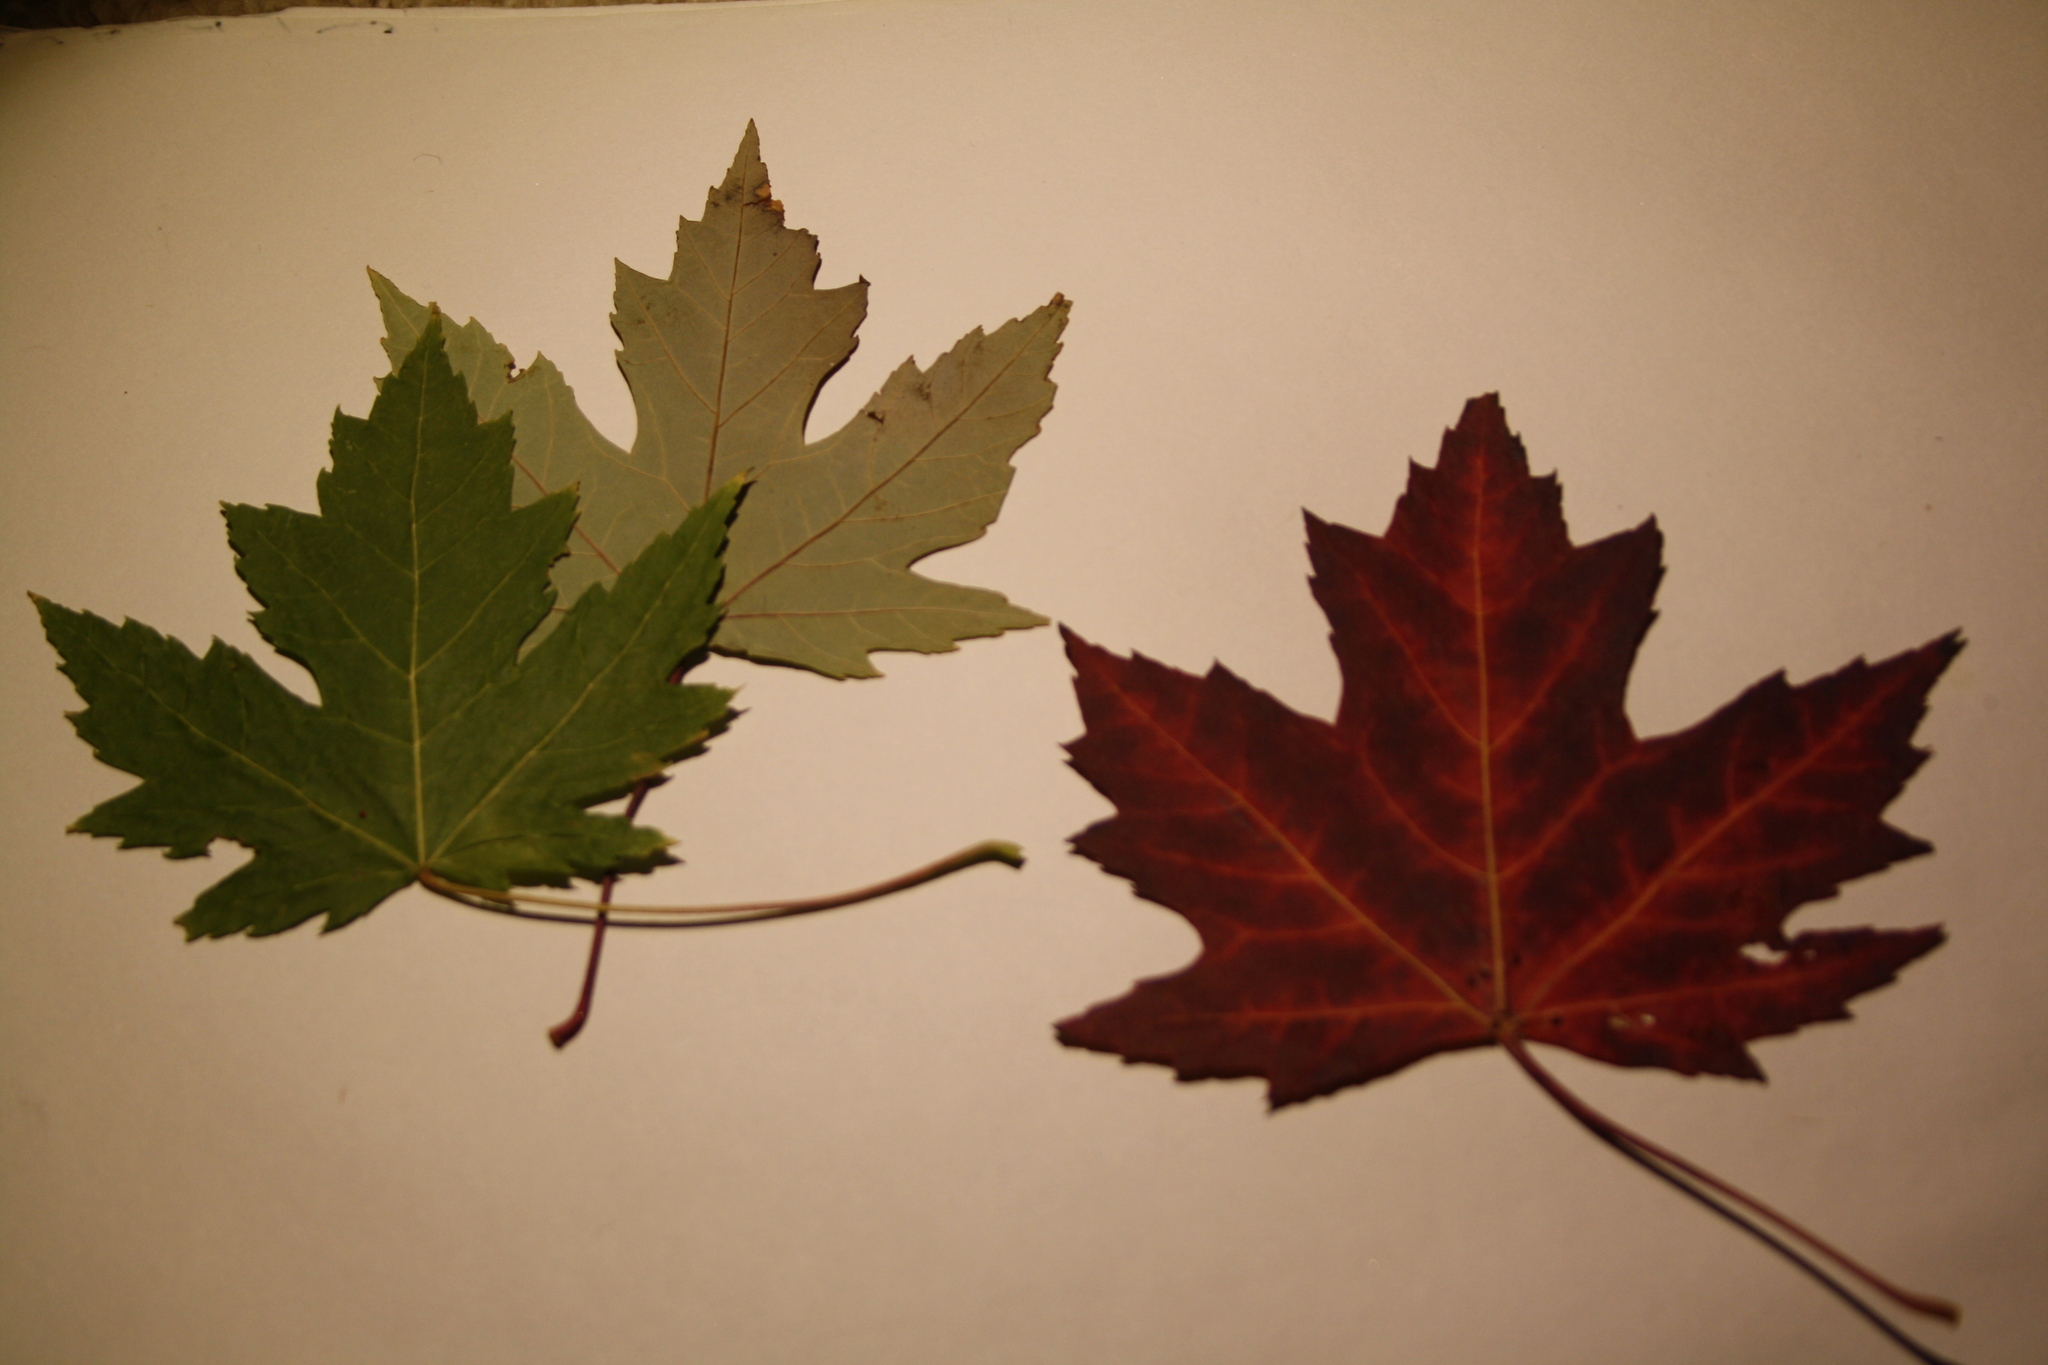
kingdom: Plantae
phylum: Tracheophyta
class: Magnoliopsida
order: Sapindales
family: Sapindaceae
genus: Acer
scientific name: Acer saccharinum
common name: Silver maple
